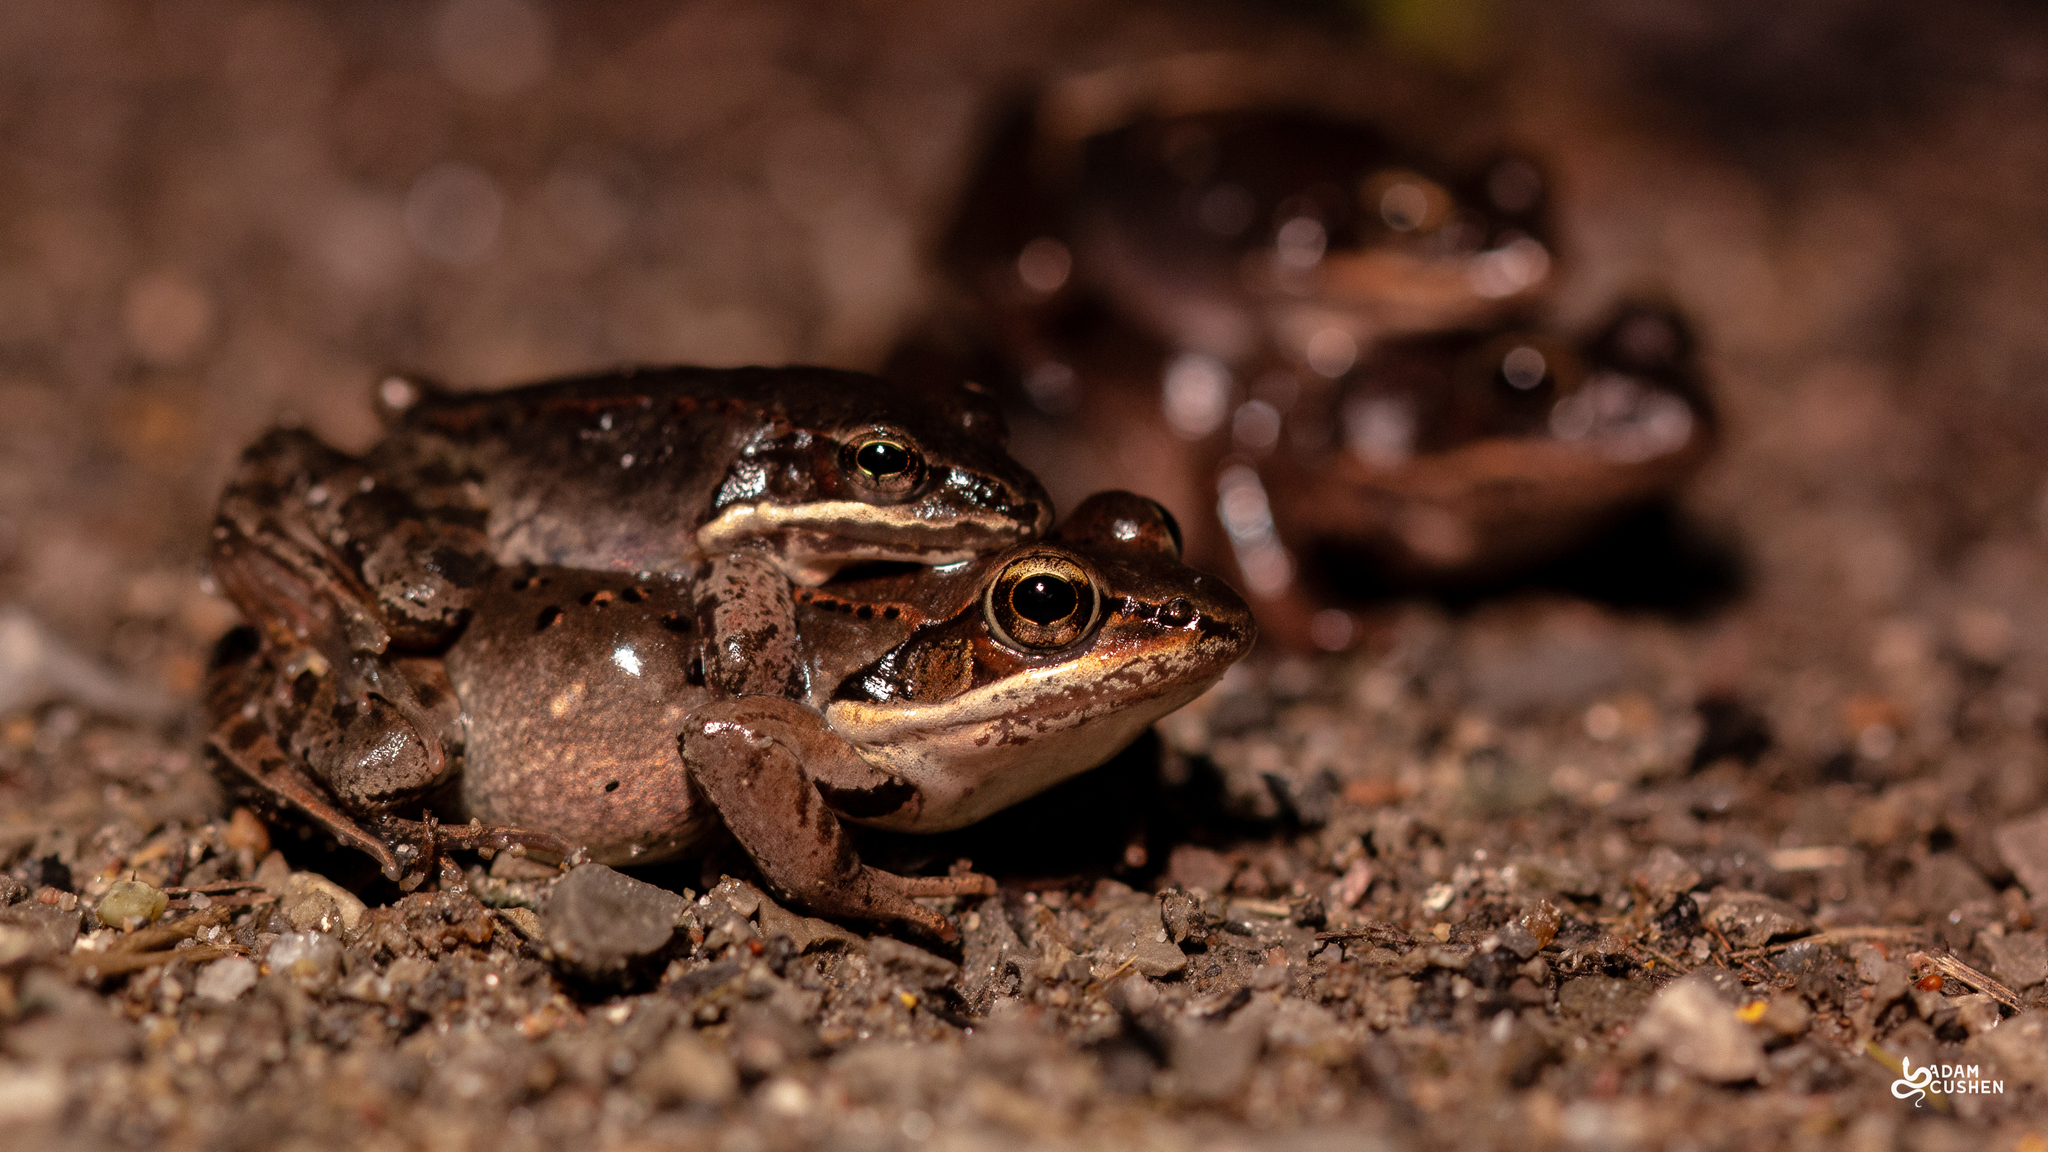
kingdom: Animalia
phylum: Chordata
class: Amphibia
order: Anura
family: Ranidae
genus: Lithobates
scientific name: Lithobates sylvaticus
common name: Wood frog
